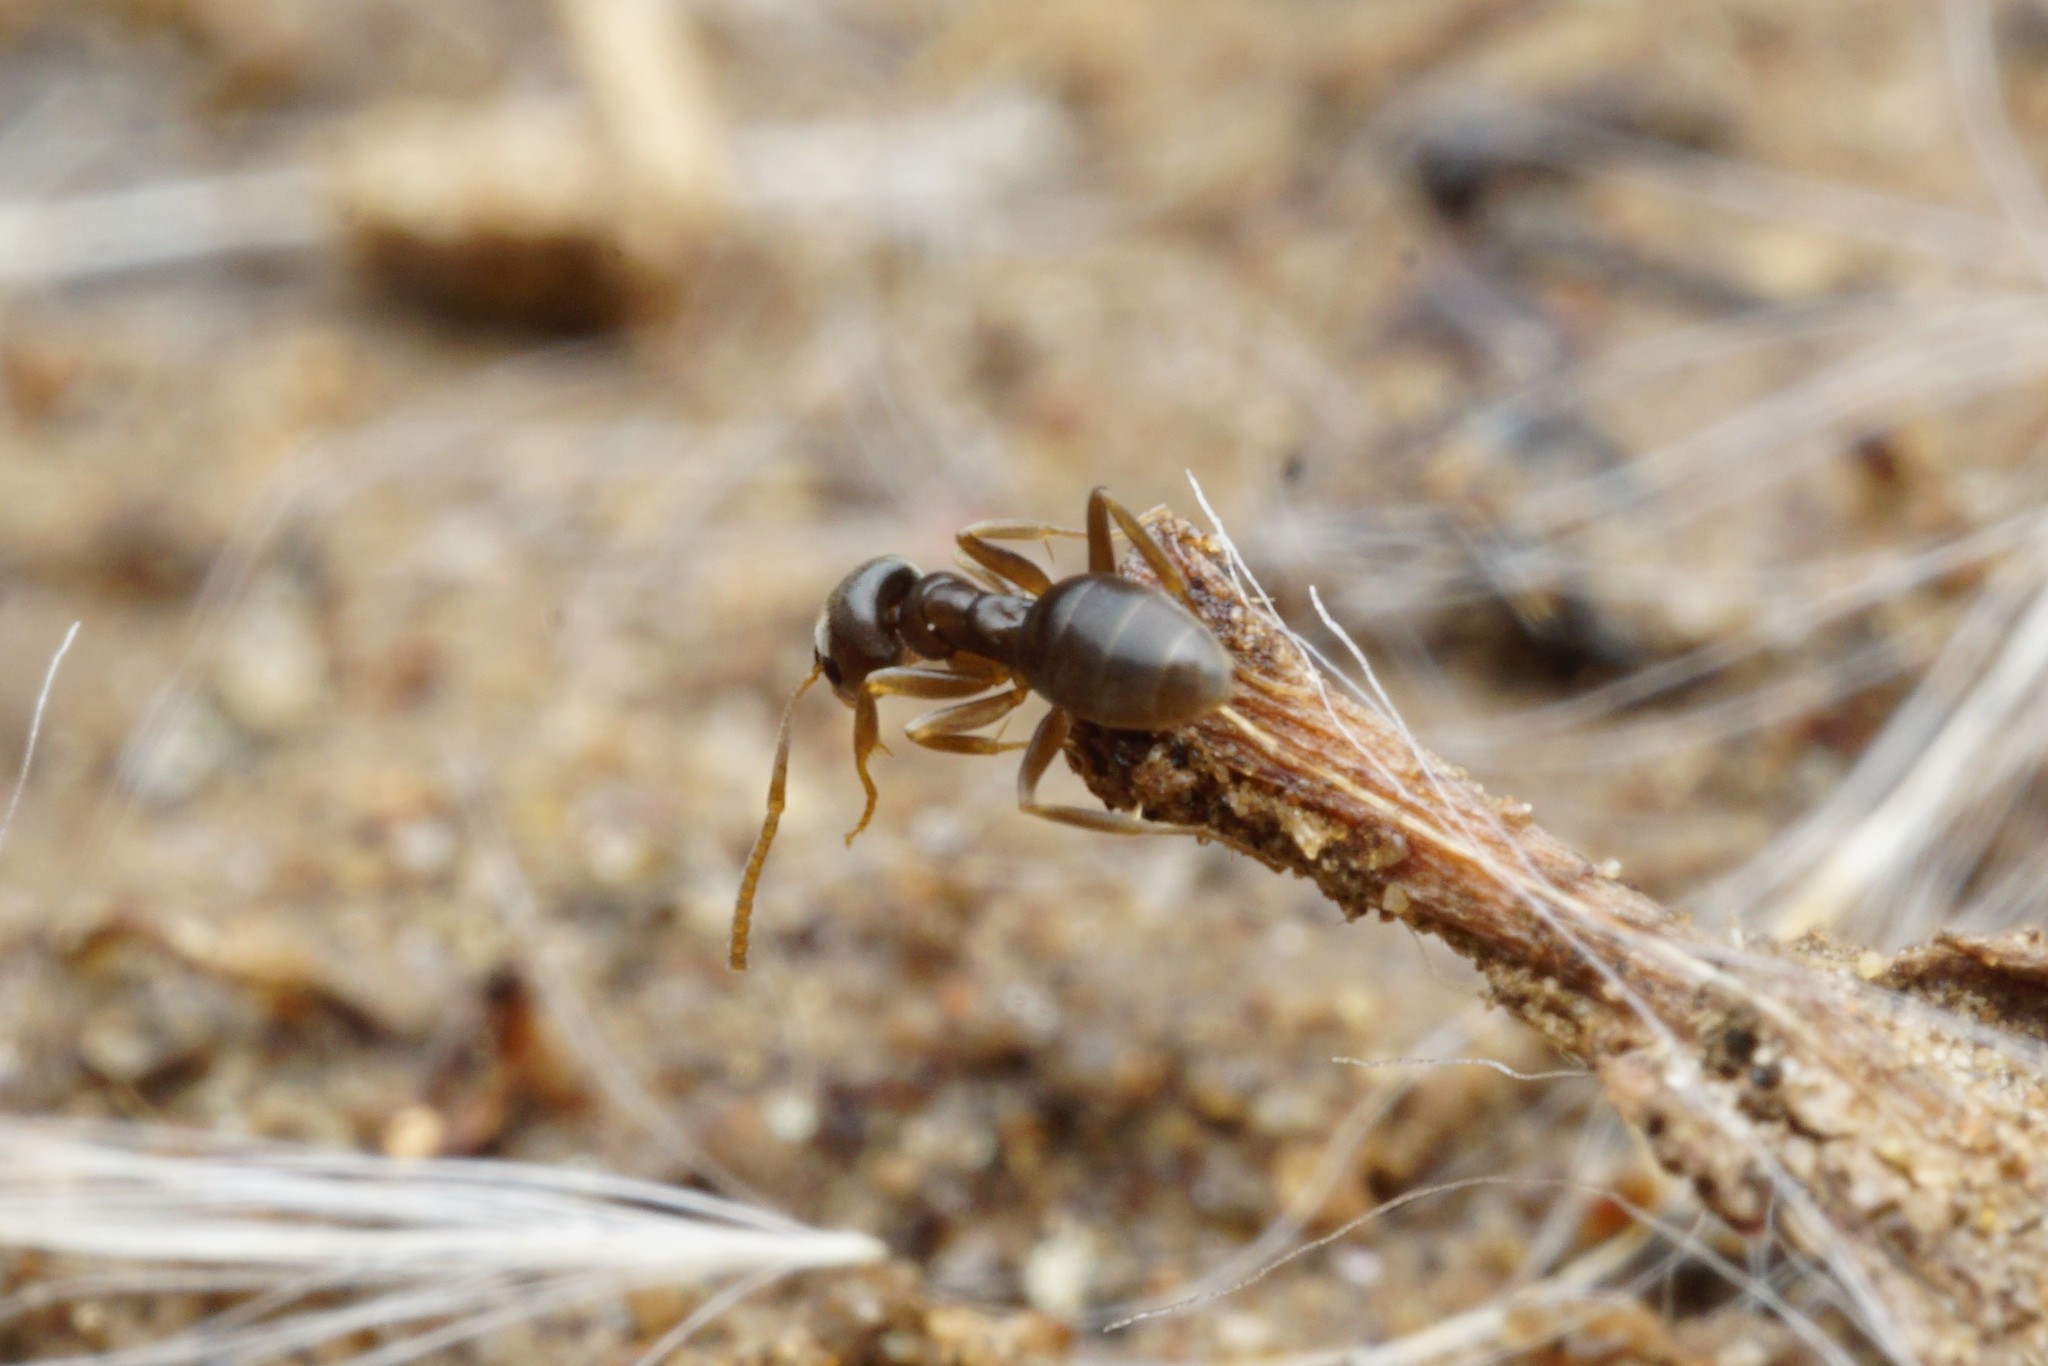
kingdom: Animalia
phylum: Arthropoda
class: Insecta
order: Hymenoptera
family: Formicidae
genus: Tapinoma
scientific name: Tapinoma sessile
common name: Odorous house ant
